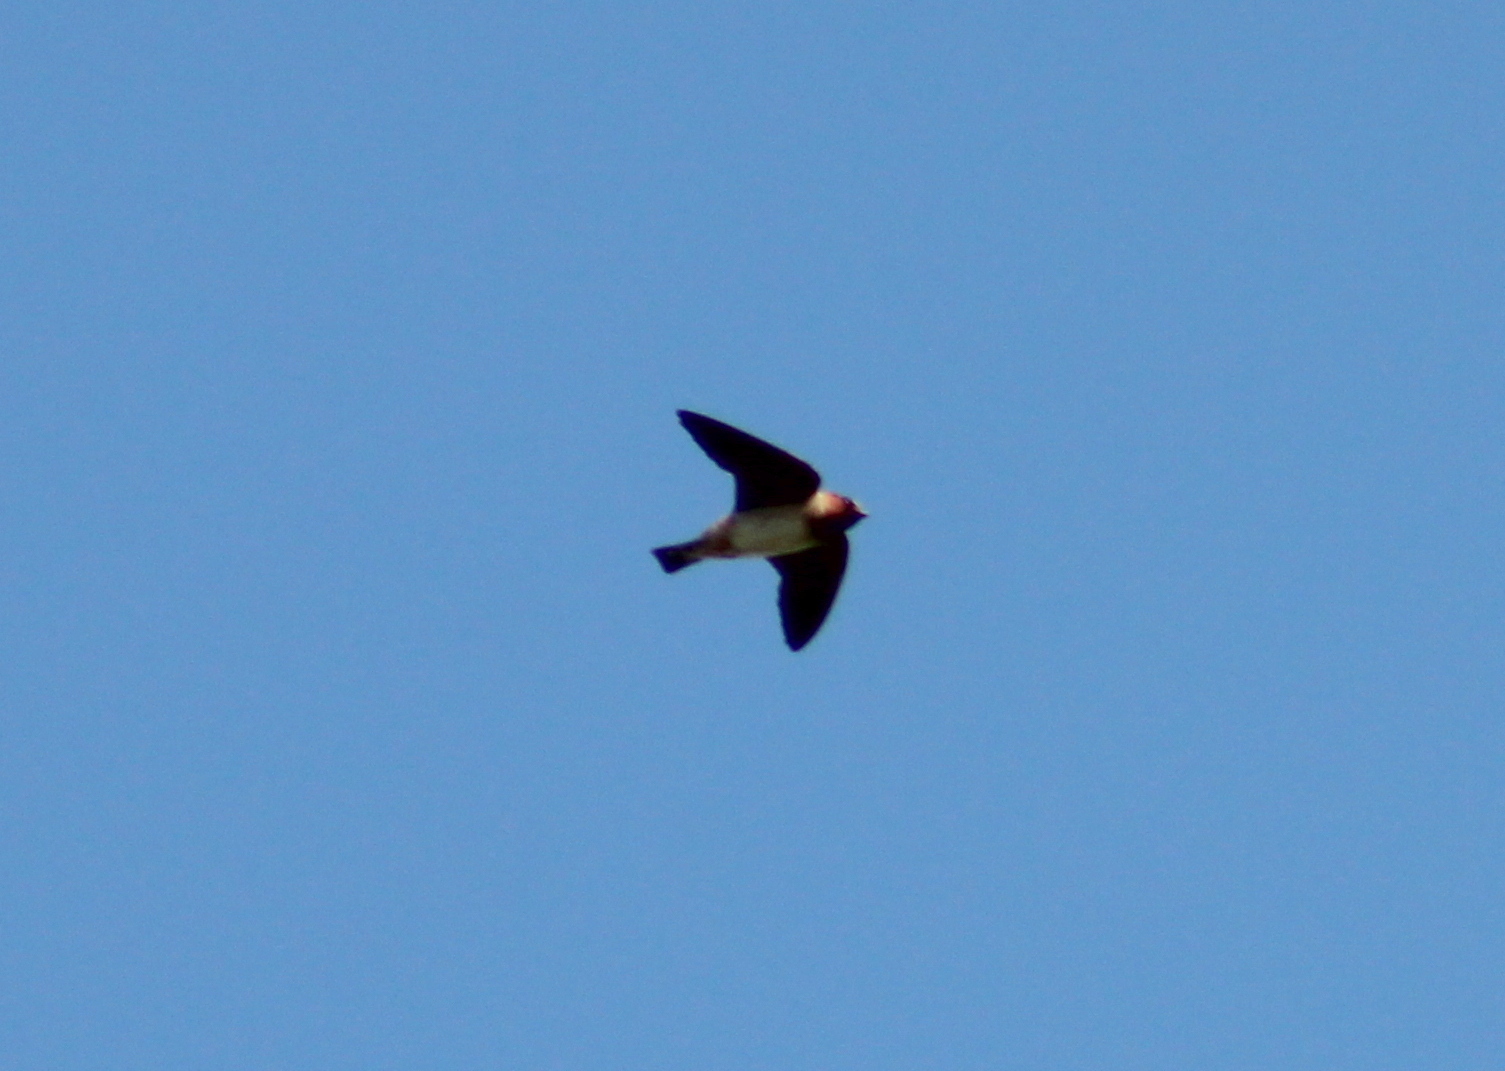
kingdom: Animalia
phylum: Chordata
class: Aves
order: Passeriformes
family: Hirundinidae
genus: Petrochelidon
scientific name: Petrochelidon pyrrhonota
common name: American cliff swallow
